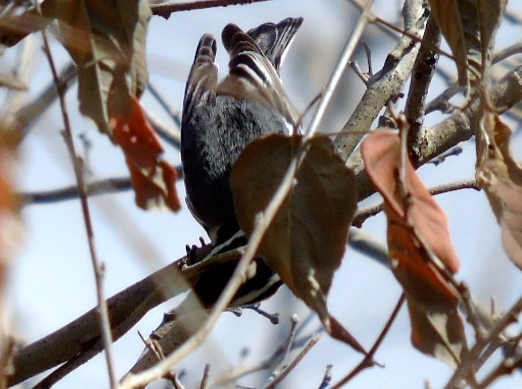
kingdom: Animalia
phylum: Chordata
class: Aves
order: Passeriformes
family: Parulidae
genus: Setophaga
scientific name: Setophaga nigrescens
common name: Black-throated gray warbler
